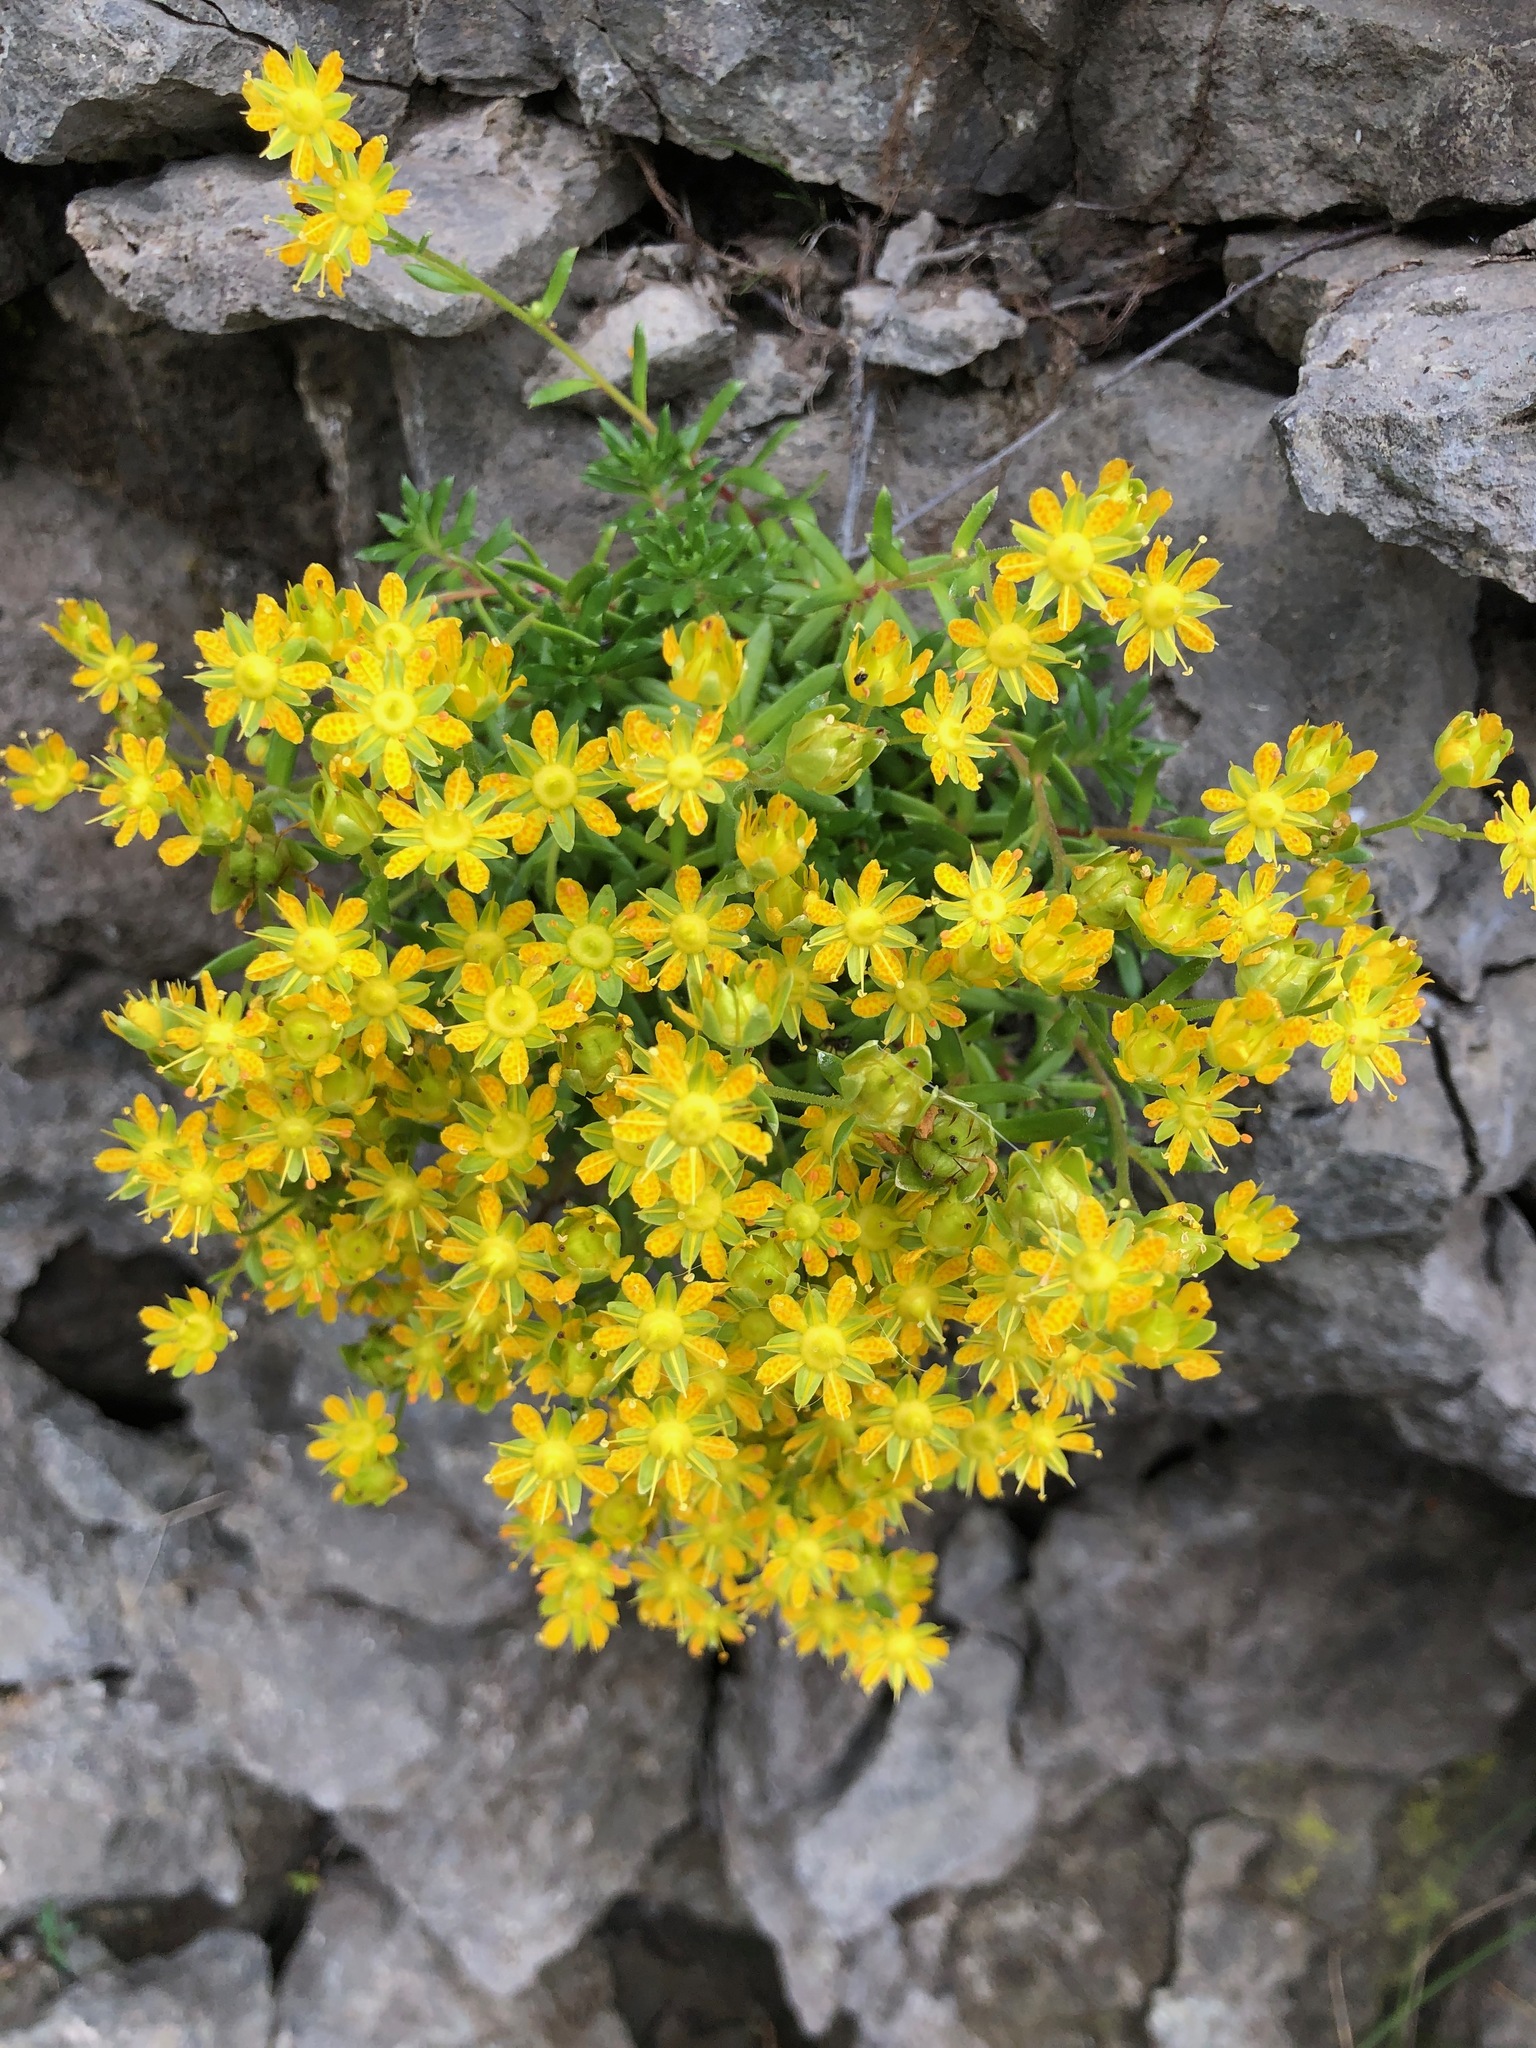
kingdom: Plantae
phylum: Tracheophyta
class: Magnoliopsida
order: Saxifragales
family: Saxifragaceae
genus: Saxifraga
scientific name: Saxifraga aizoides
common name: Yellow mountain saxifrage
